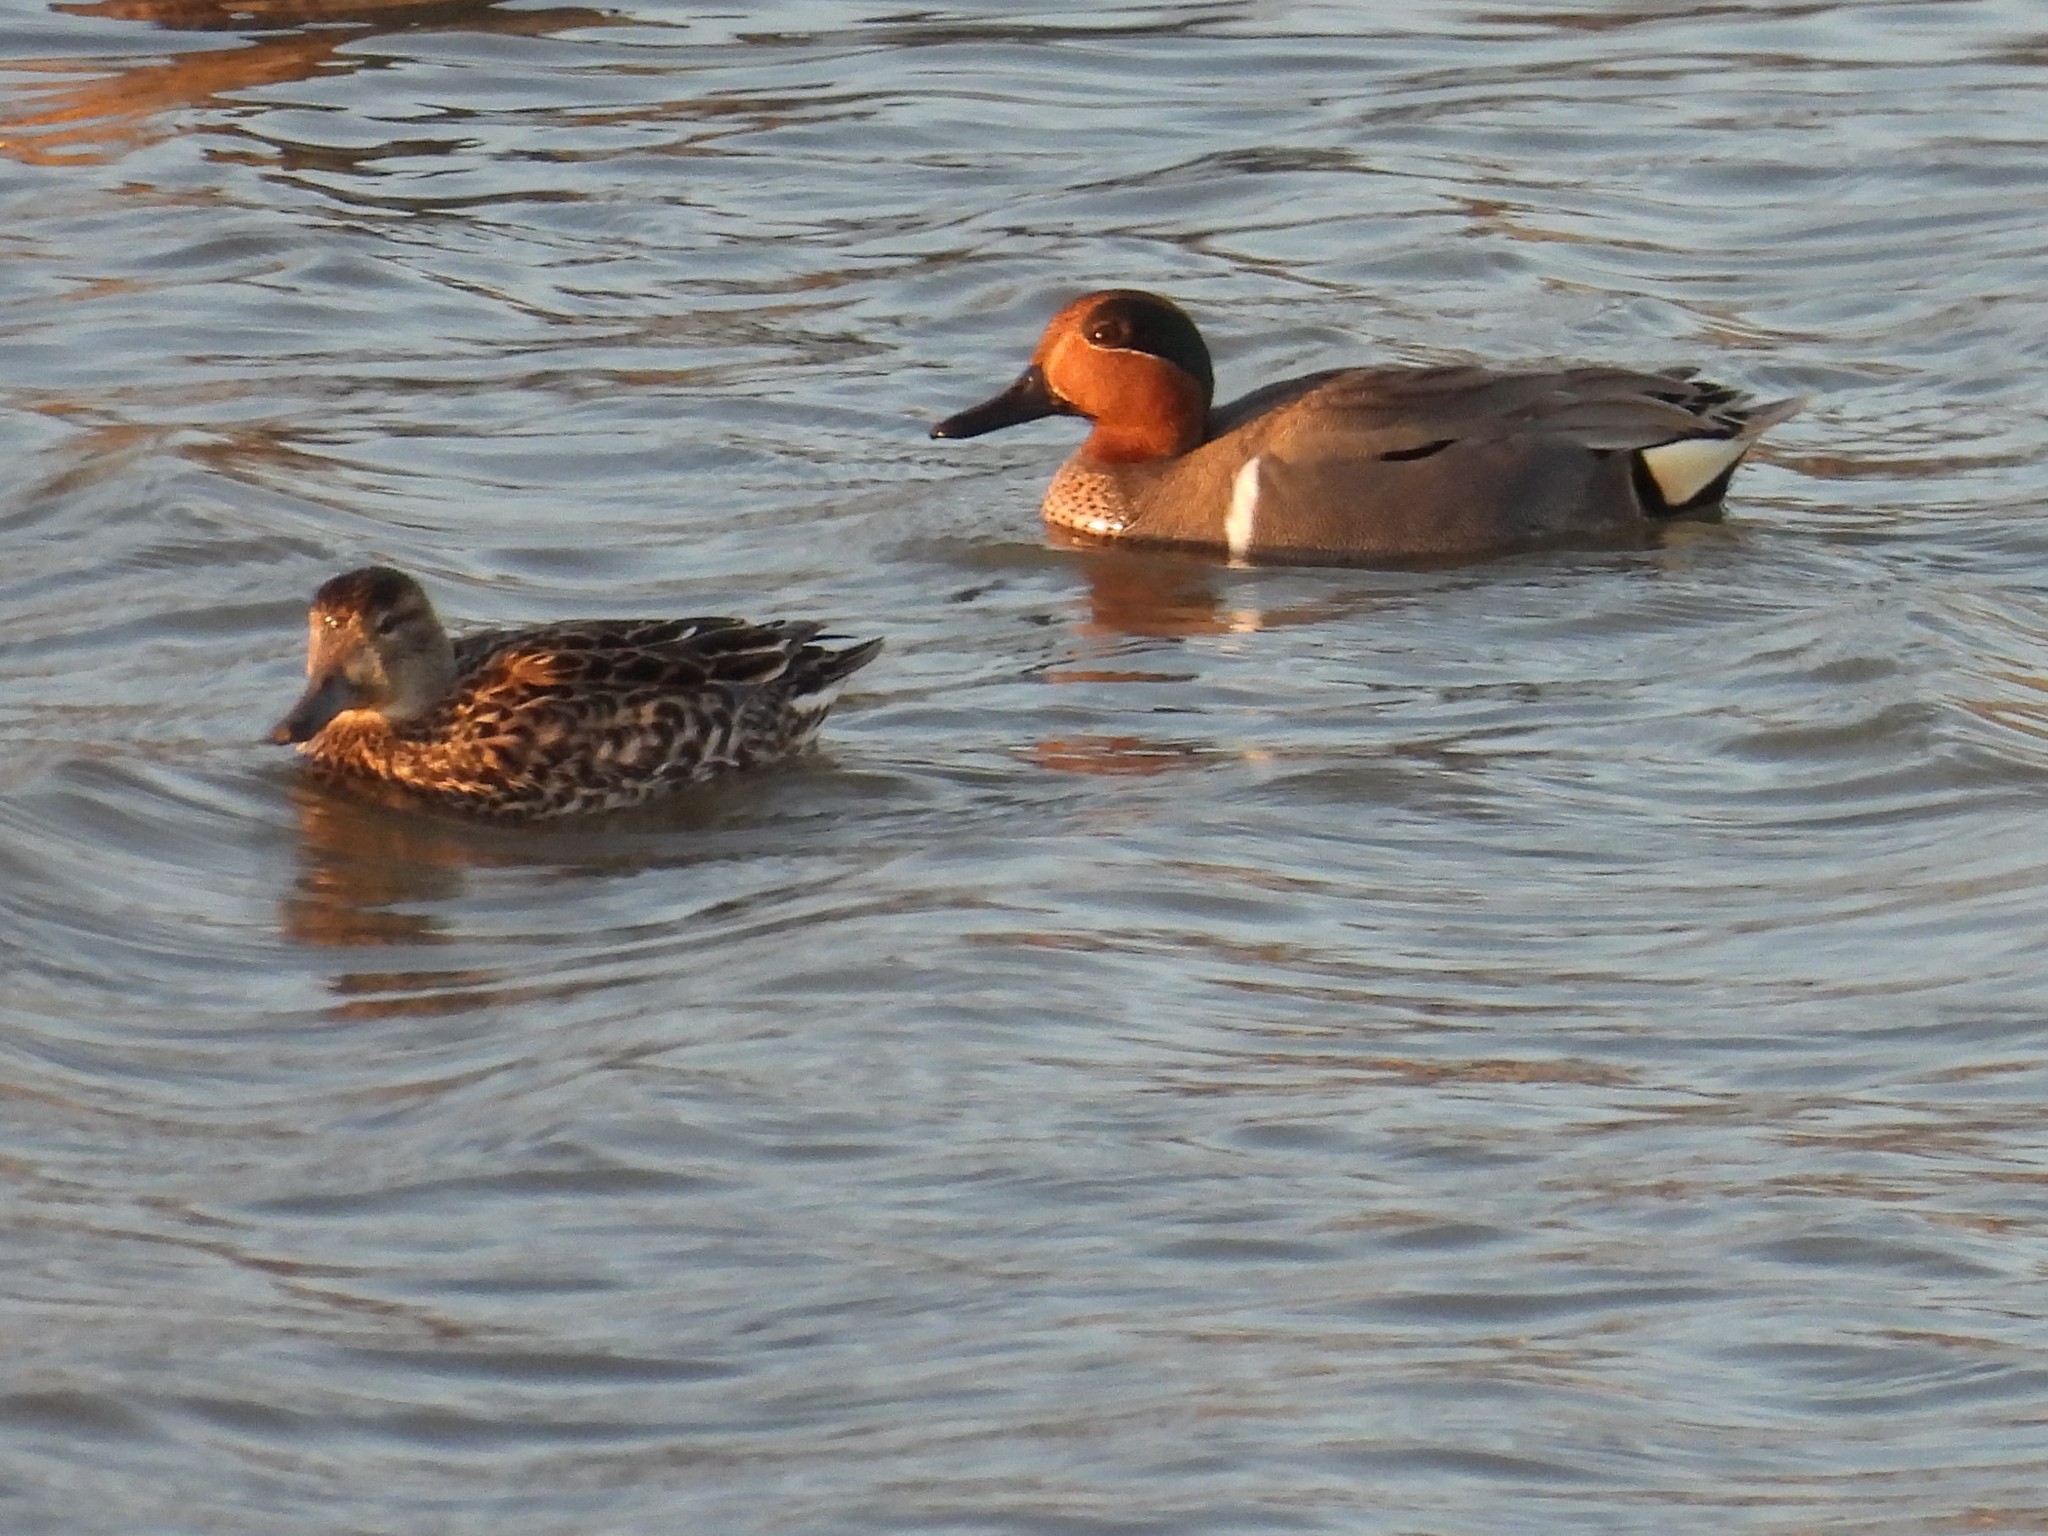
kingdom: Animalia
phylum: Chordata
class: Aves
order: Anseriformes
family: Anatidae
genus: Anas
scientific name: Anas crecca
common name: Eurasian teal
